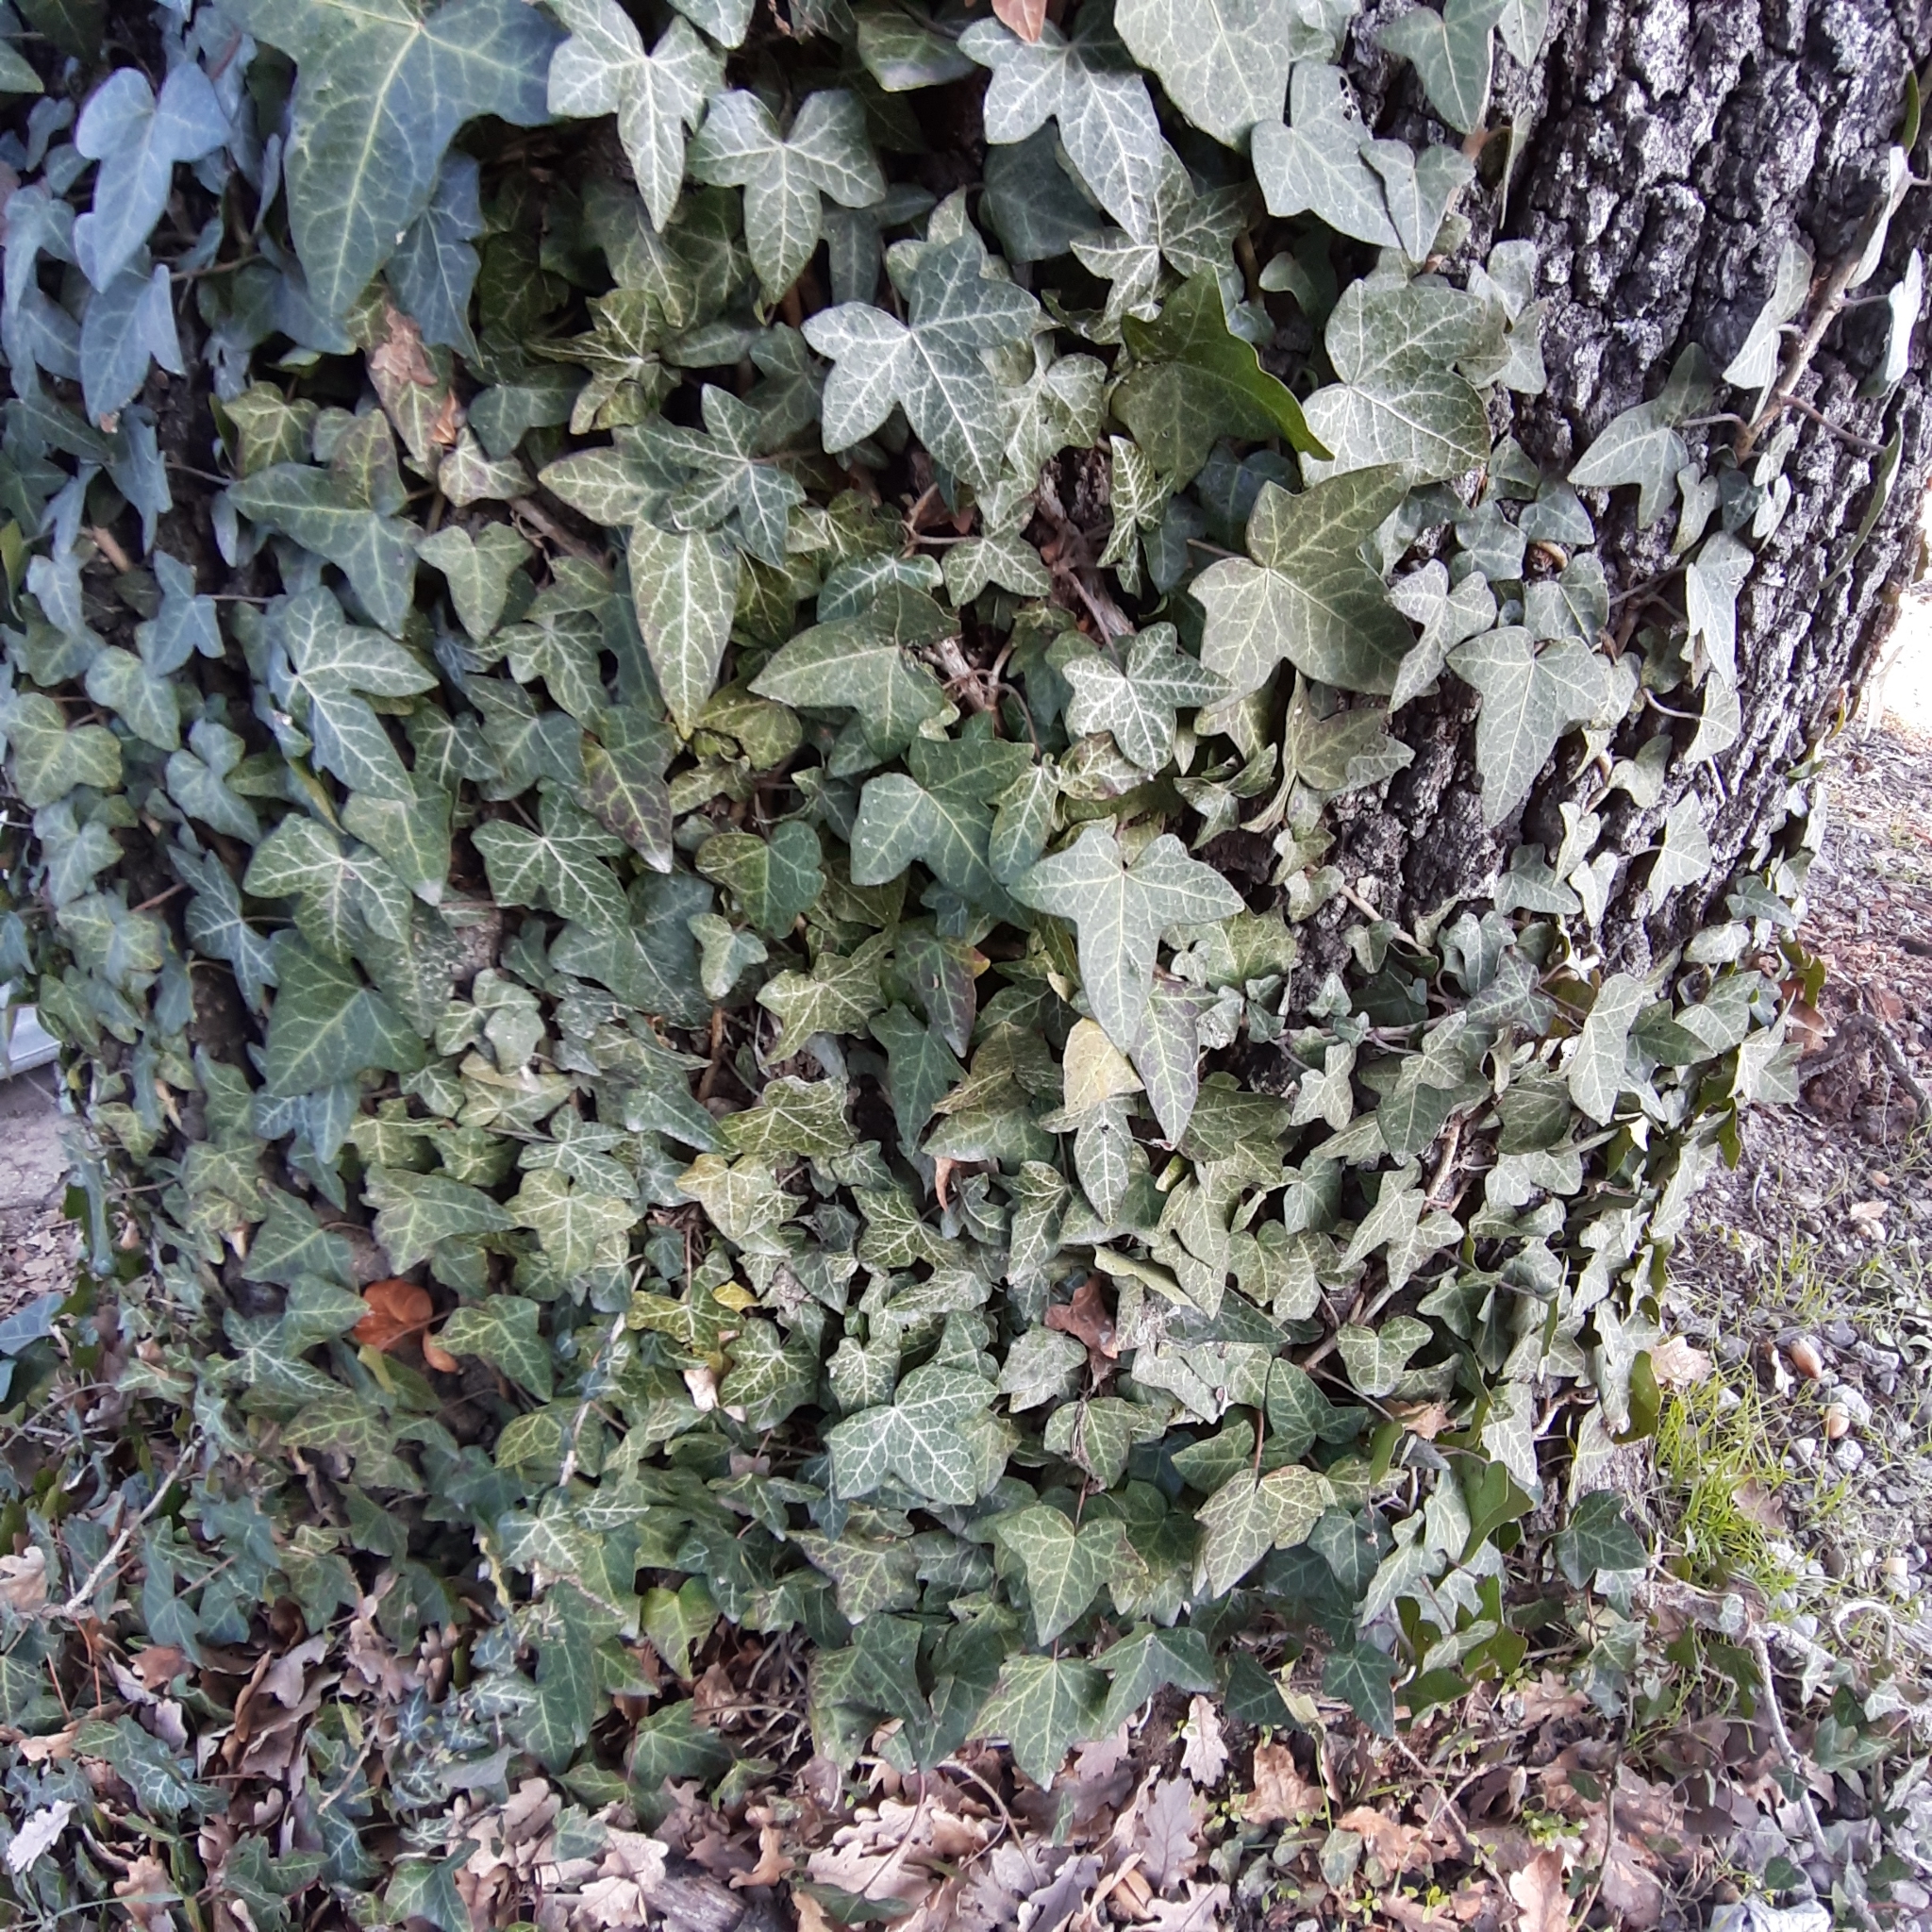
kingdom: Plantae
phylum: Tracheophyta
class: Magnoliopsida
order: Apiales
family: Araliaceae
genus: Hedera
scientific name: Hedera helix
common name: Ivy
